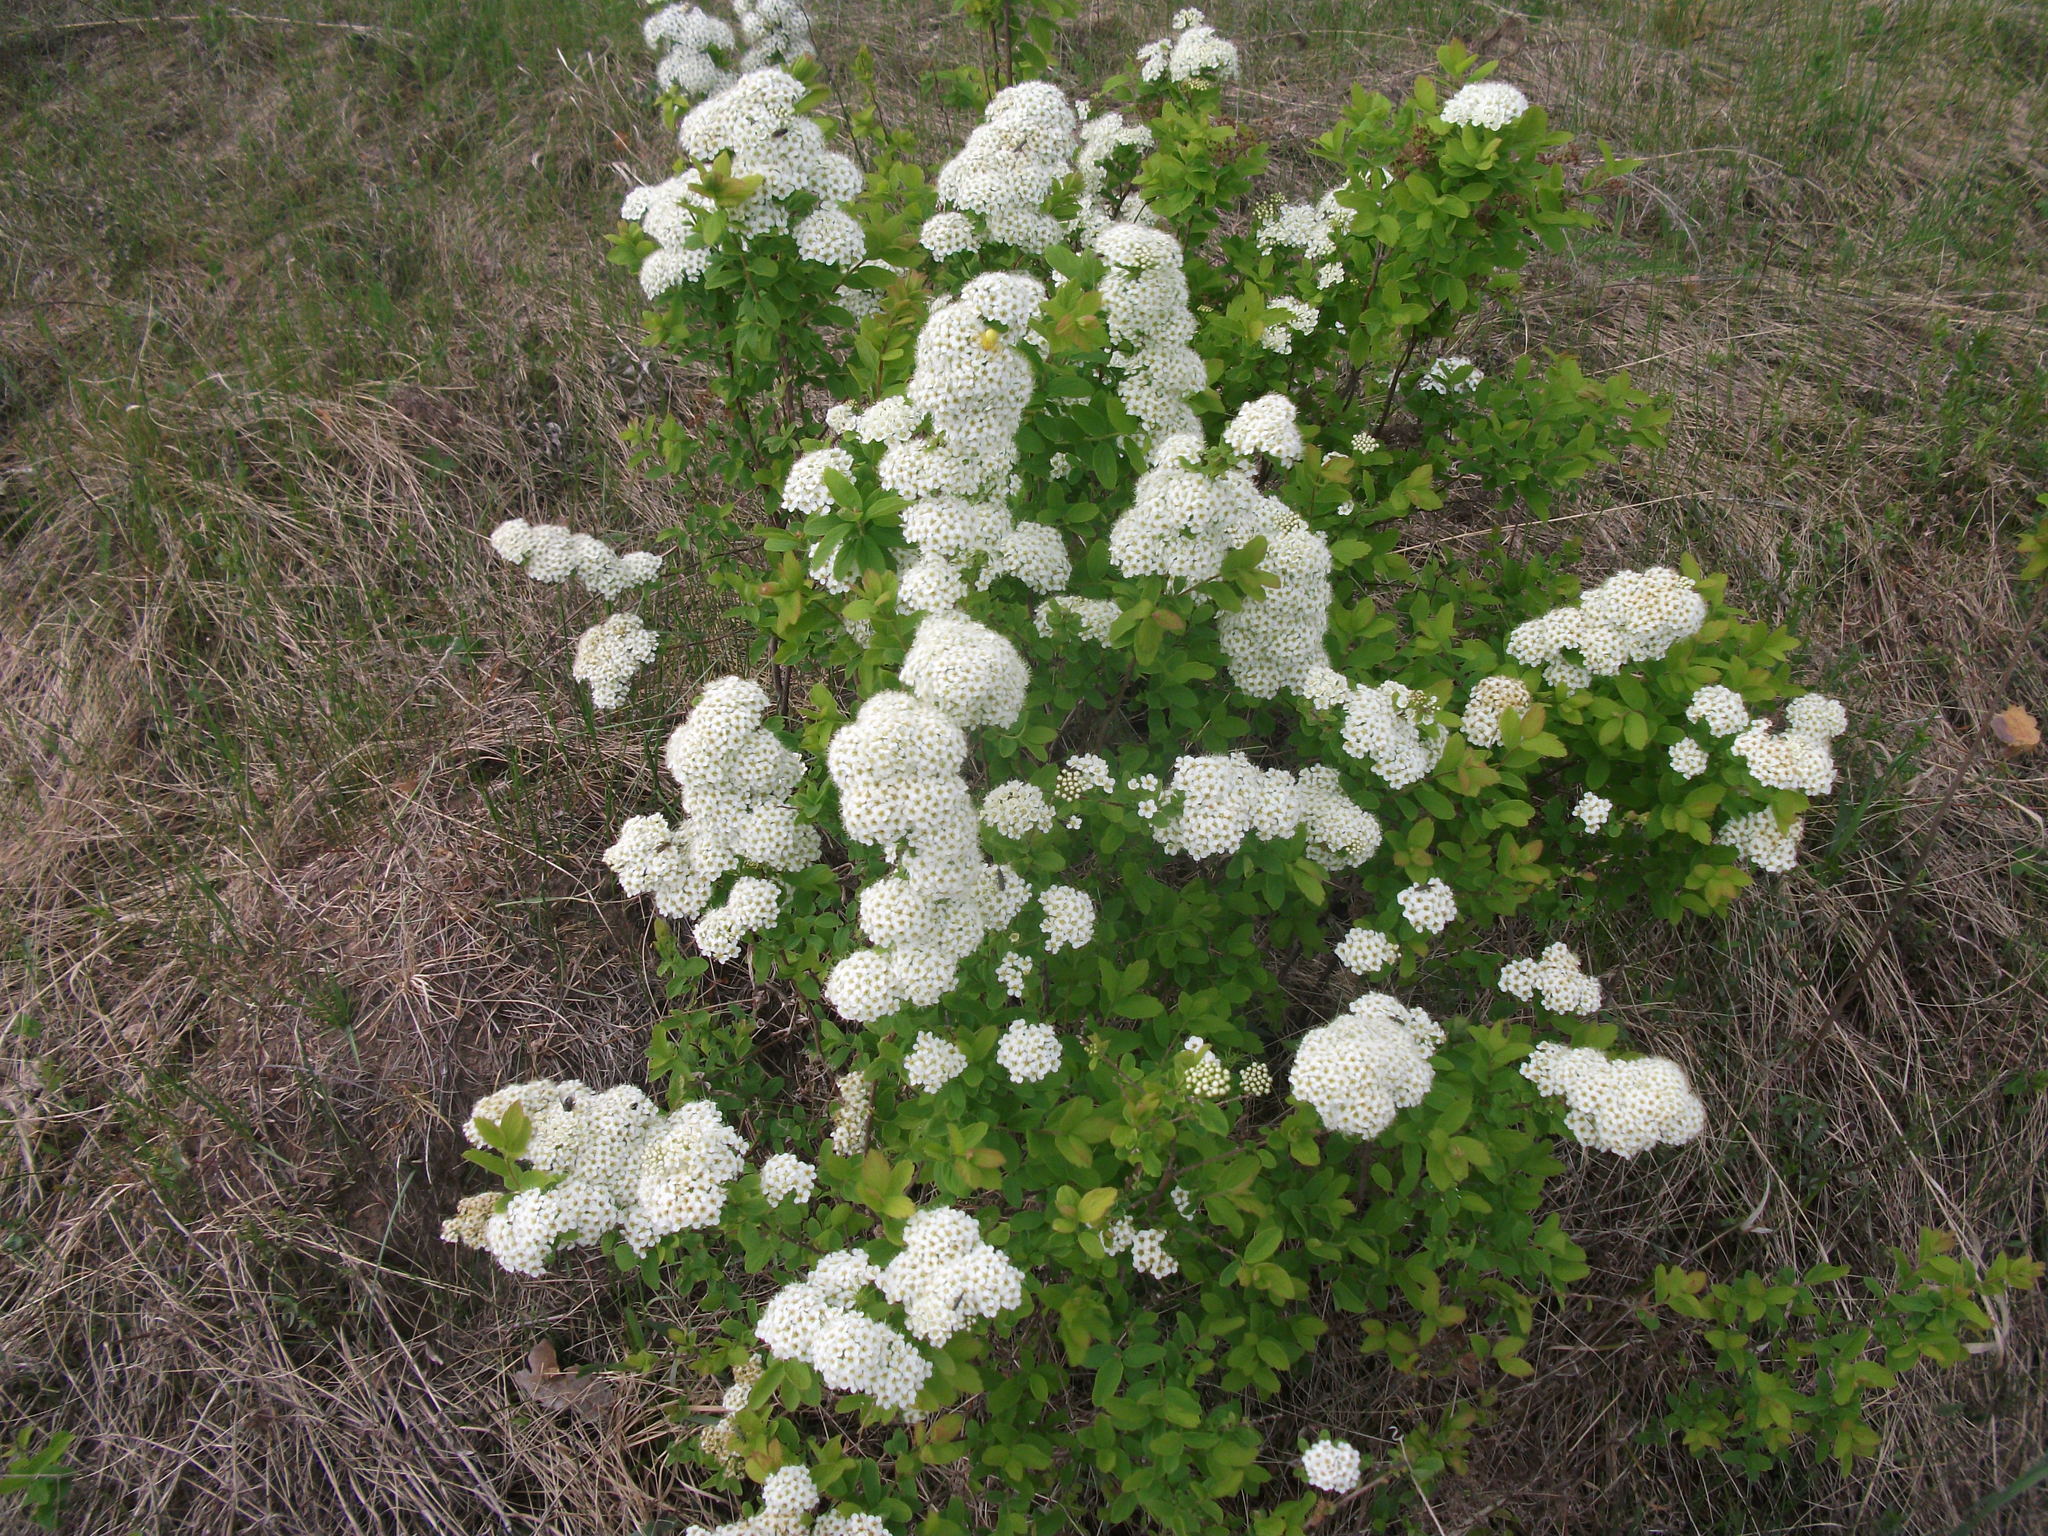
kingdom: Plantae
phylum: Tracheophyta
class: Magnoliopsida
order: Rosales
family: Rosaceae
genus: Spiraea
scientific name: Spiraea media
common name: Russian spiraea
